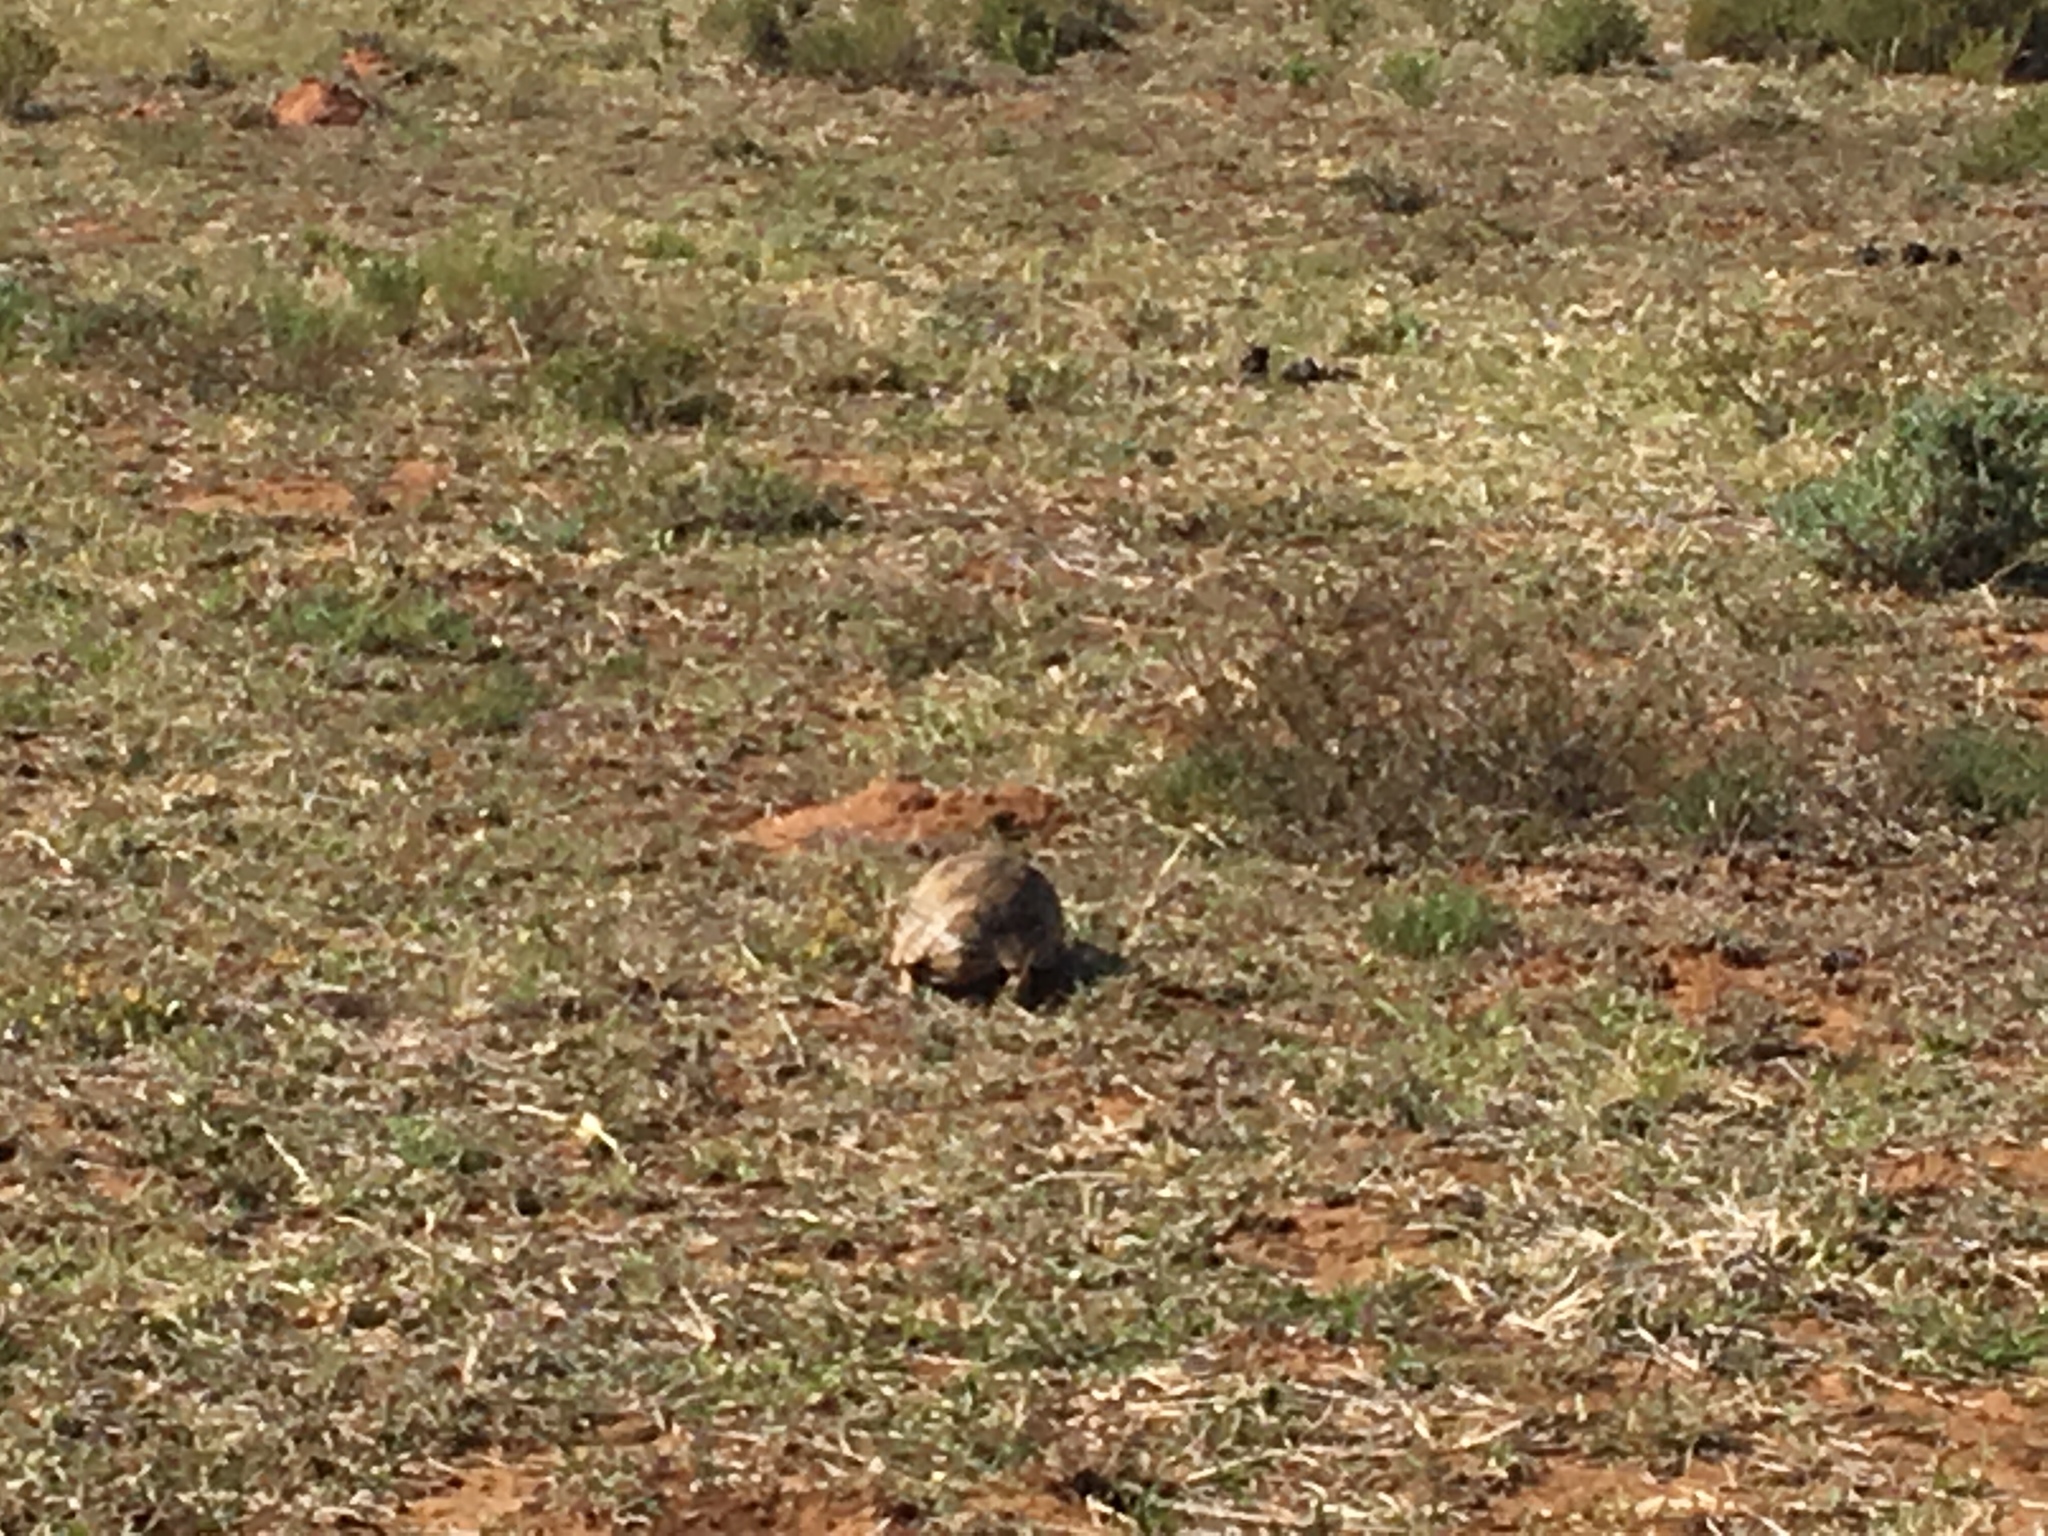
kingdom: Animalia
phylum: Chordata
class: Testudines
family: Testudinidae
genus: Stigmochelys
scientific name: Stigmochelys pardalis
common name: Leopard tortoise
